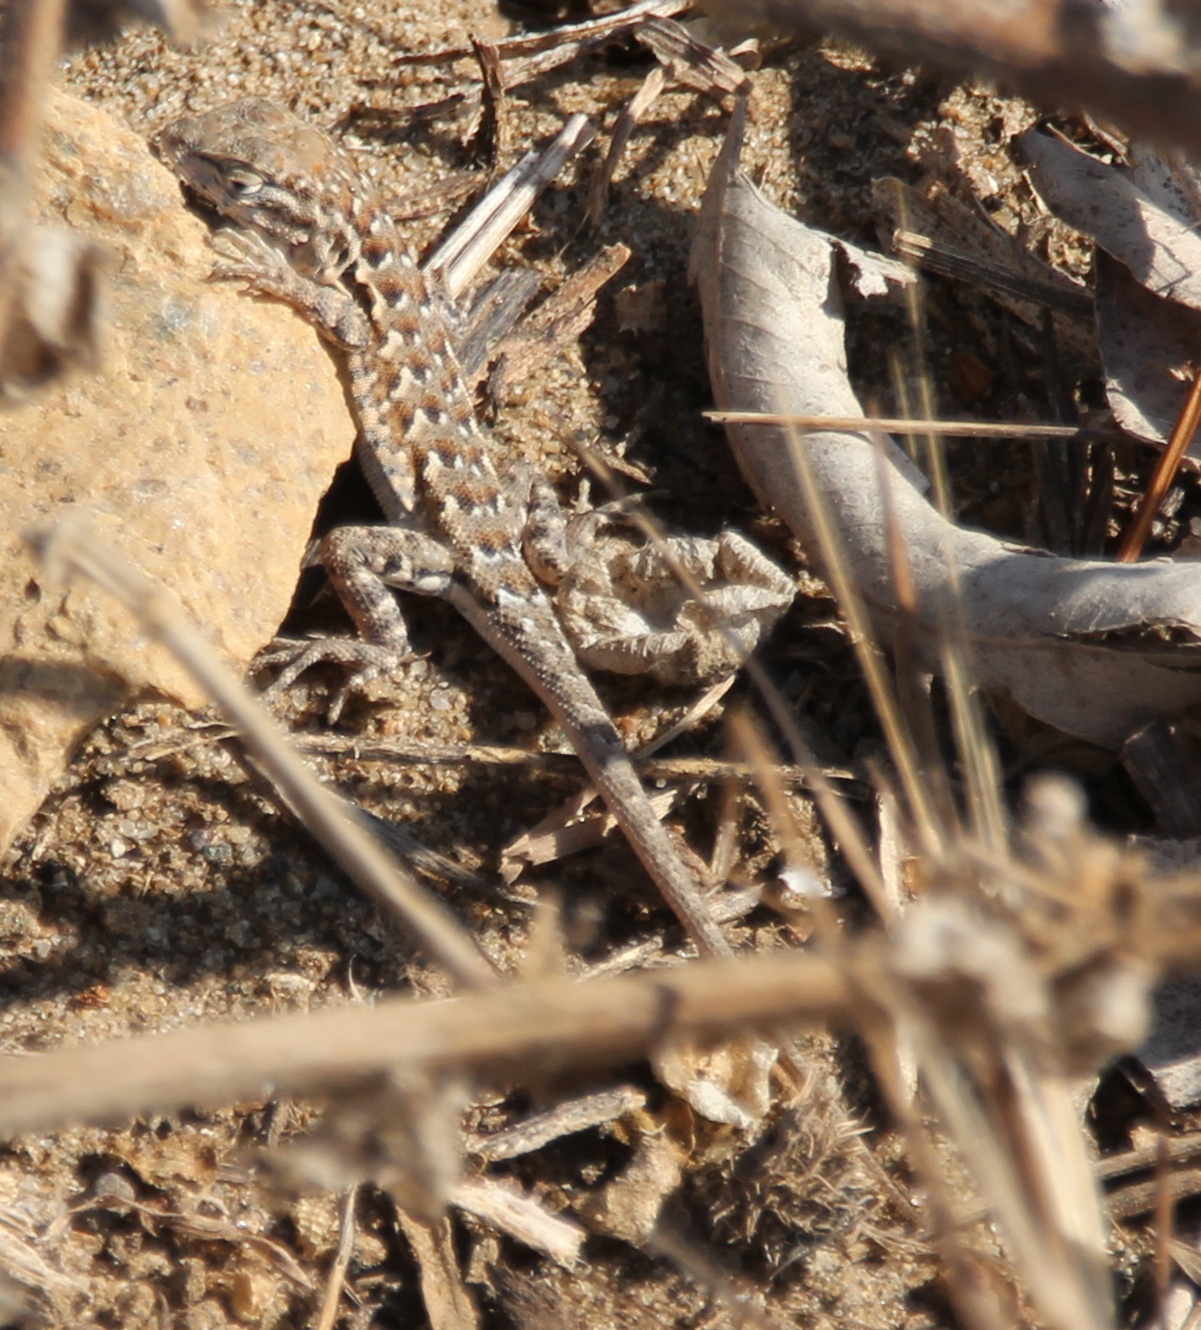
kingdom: Animalia
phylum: Chordata
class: Squamata
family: Phrynosomatidae
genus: Uta
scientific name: Uta stansburiana
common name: Side-blotched lizard
